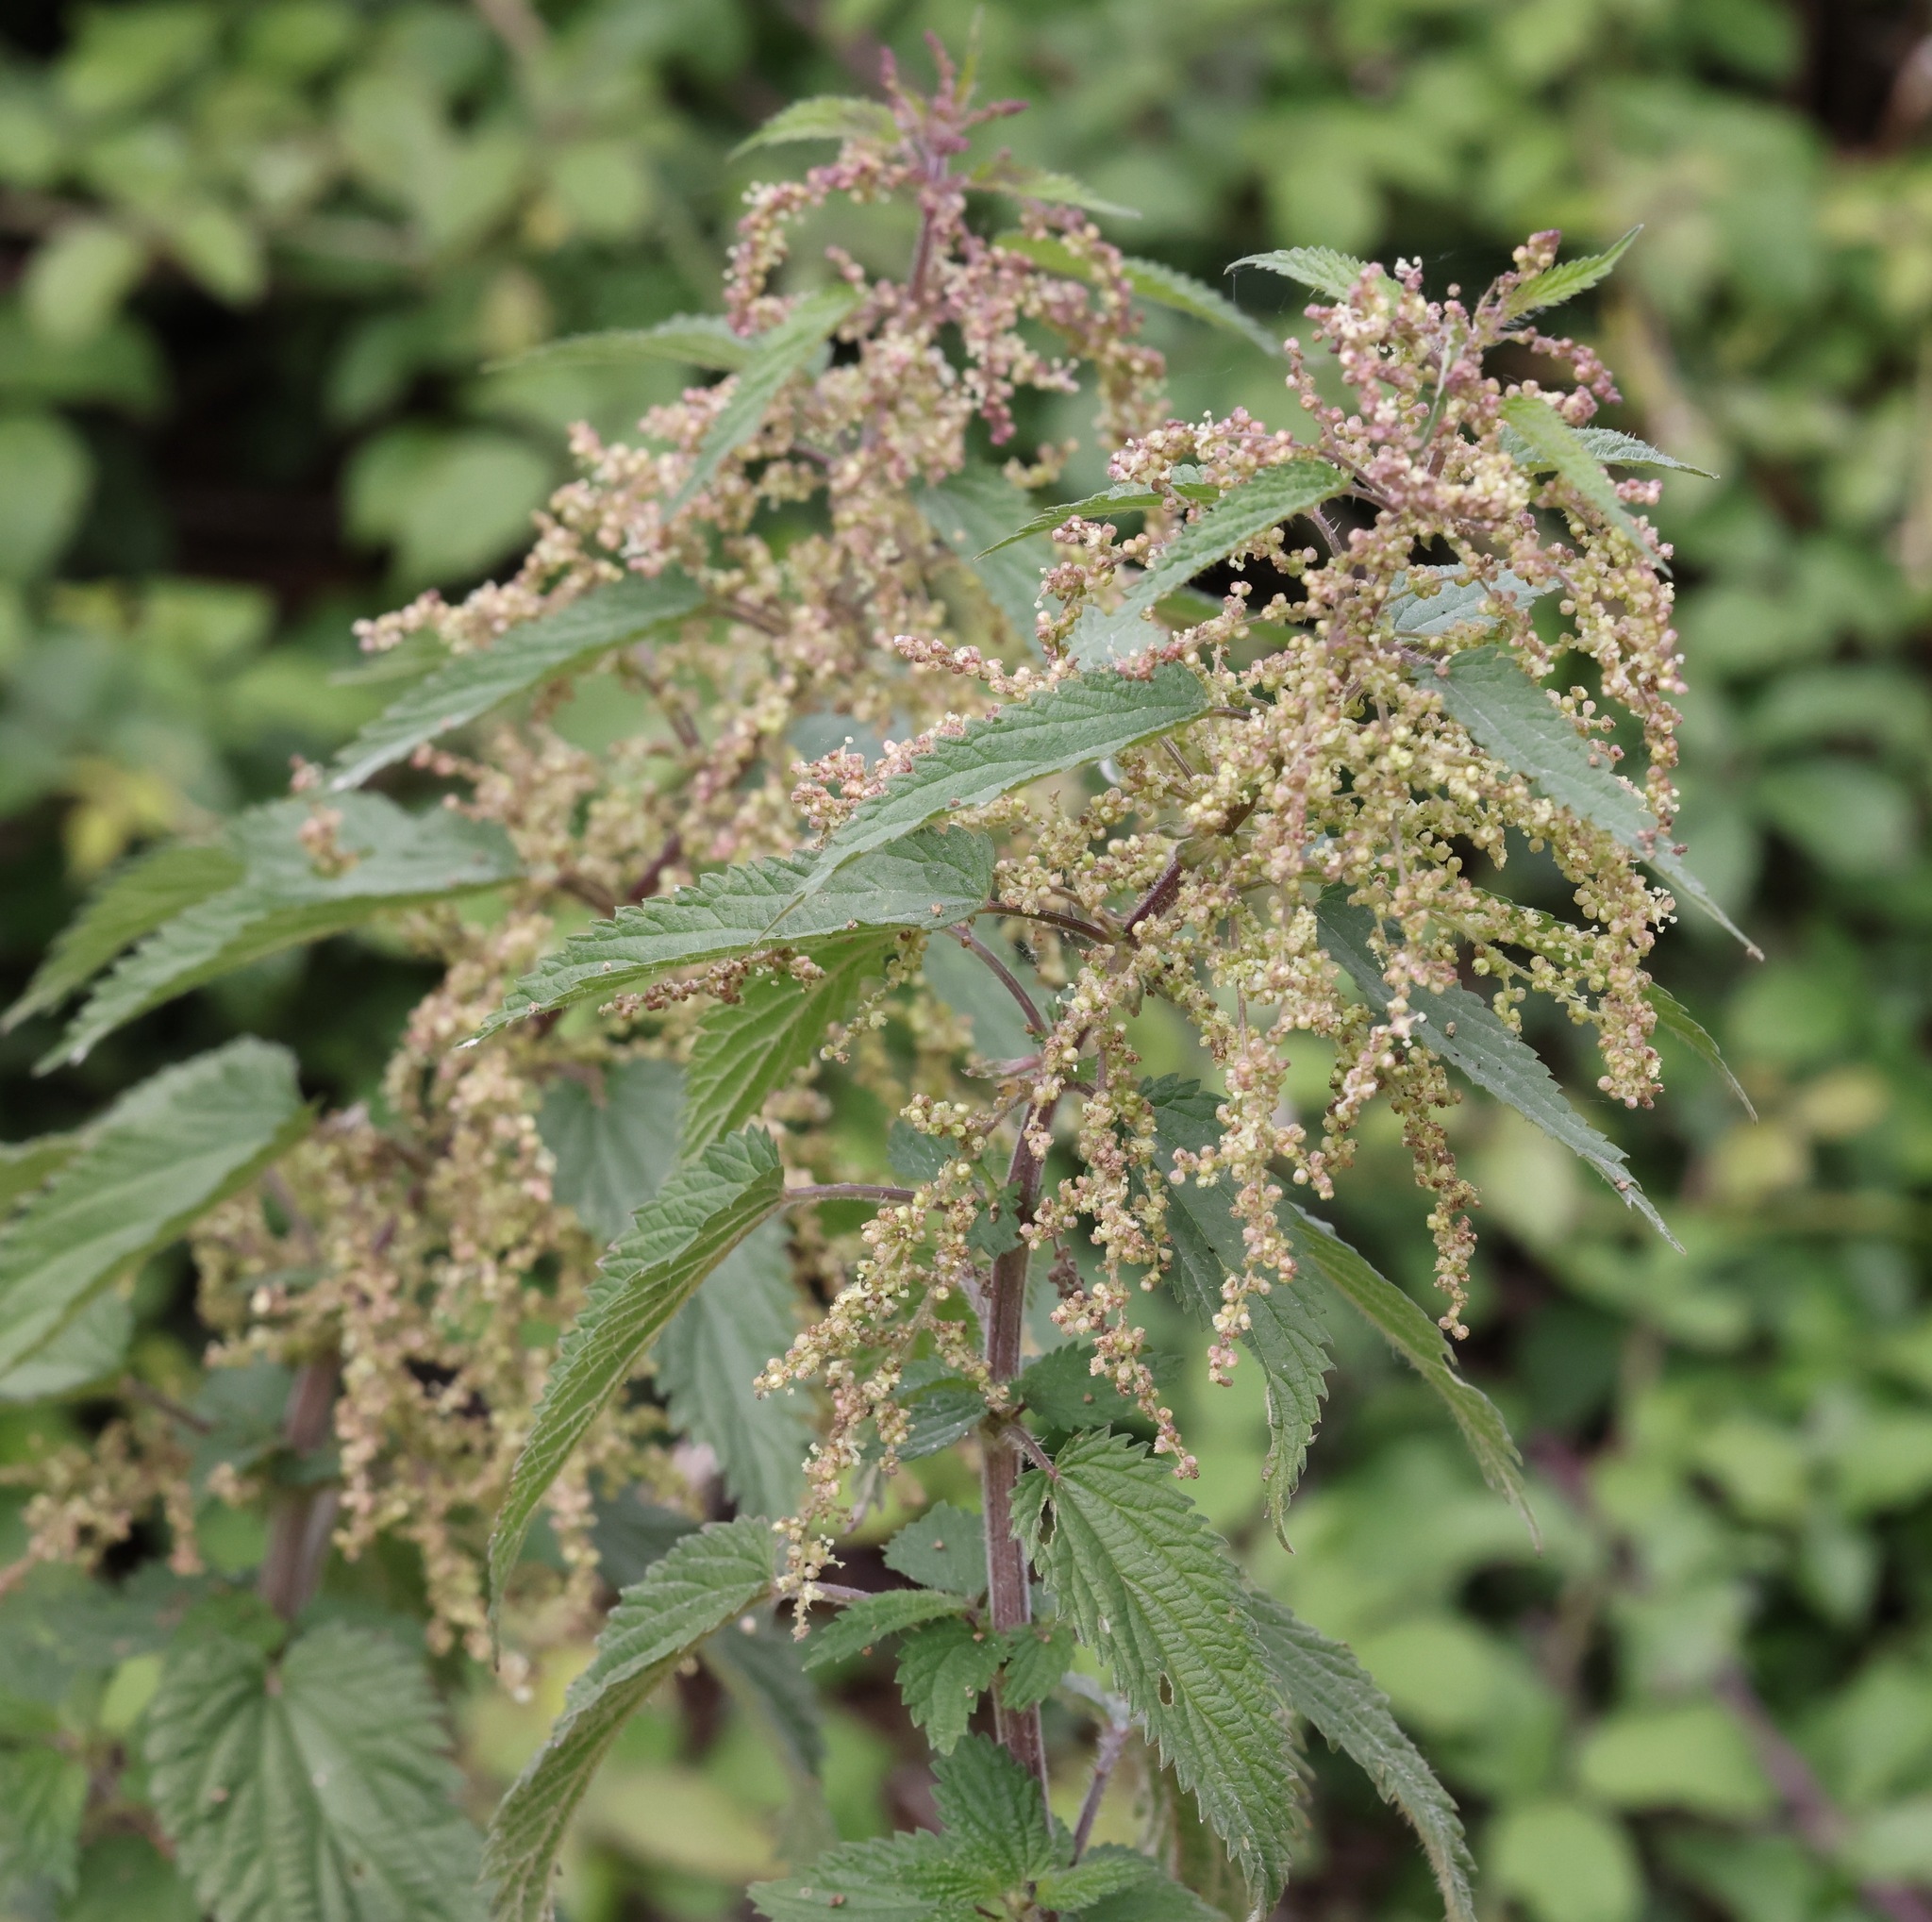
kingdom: Plantae
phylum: Tracheophyta
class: Magnoliopsida
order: Rosales
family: Urticaceae
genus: Urtica
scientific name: Urtica dioica
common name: Common nettle
